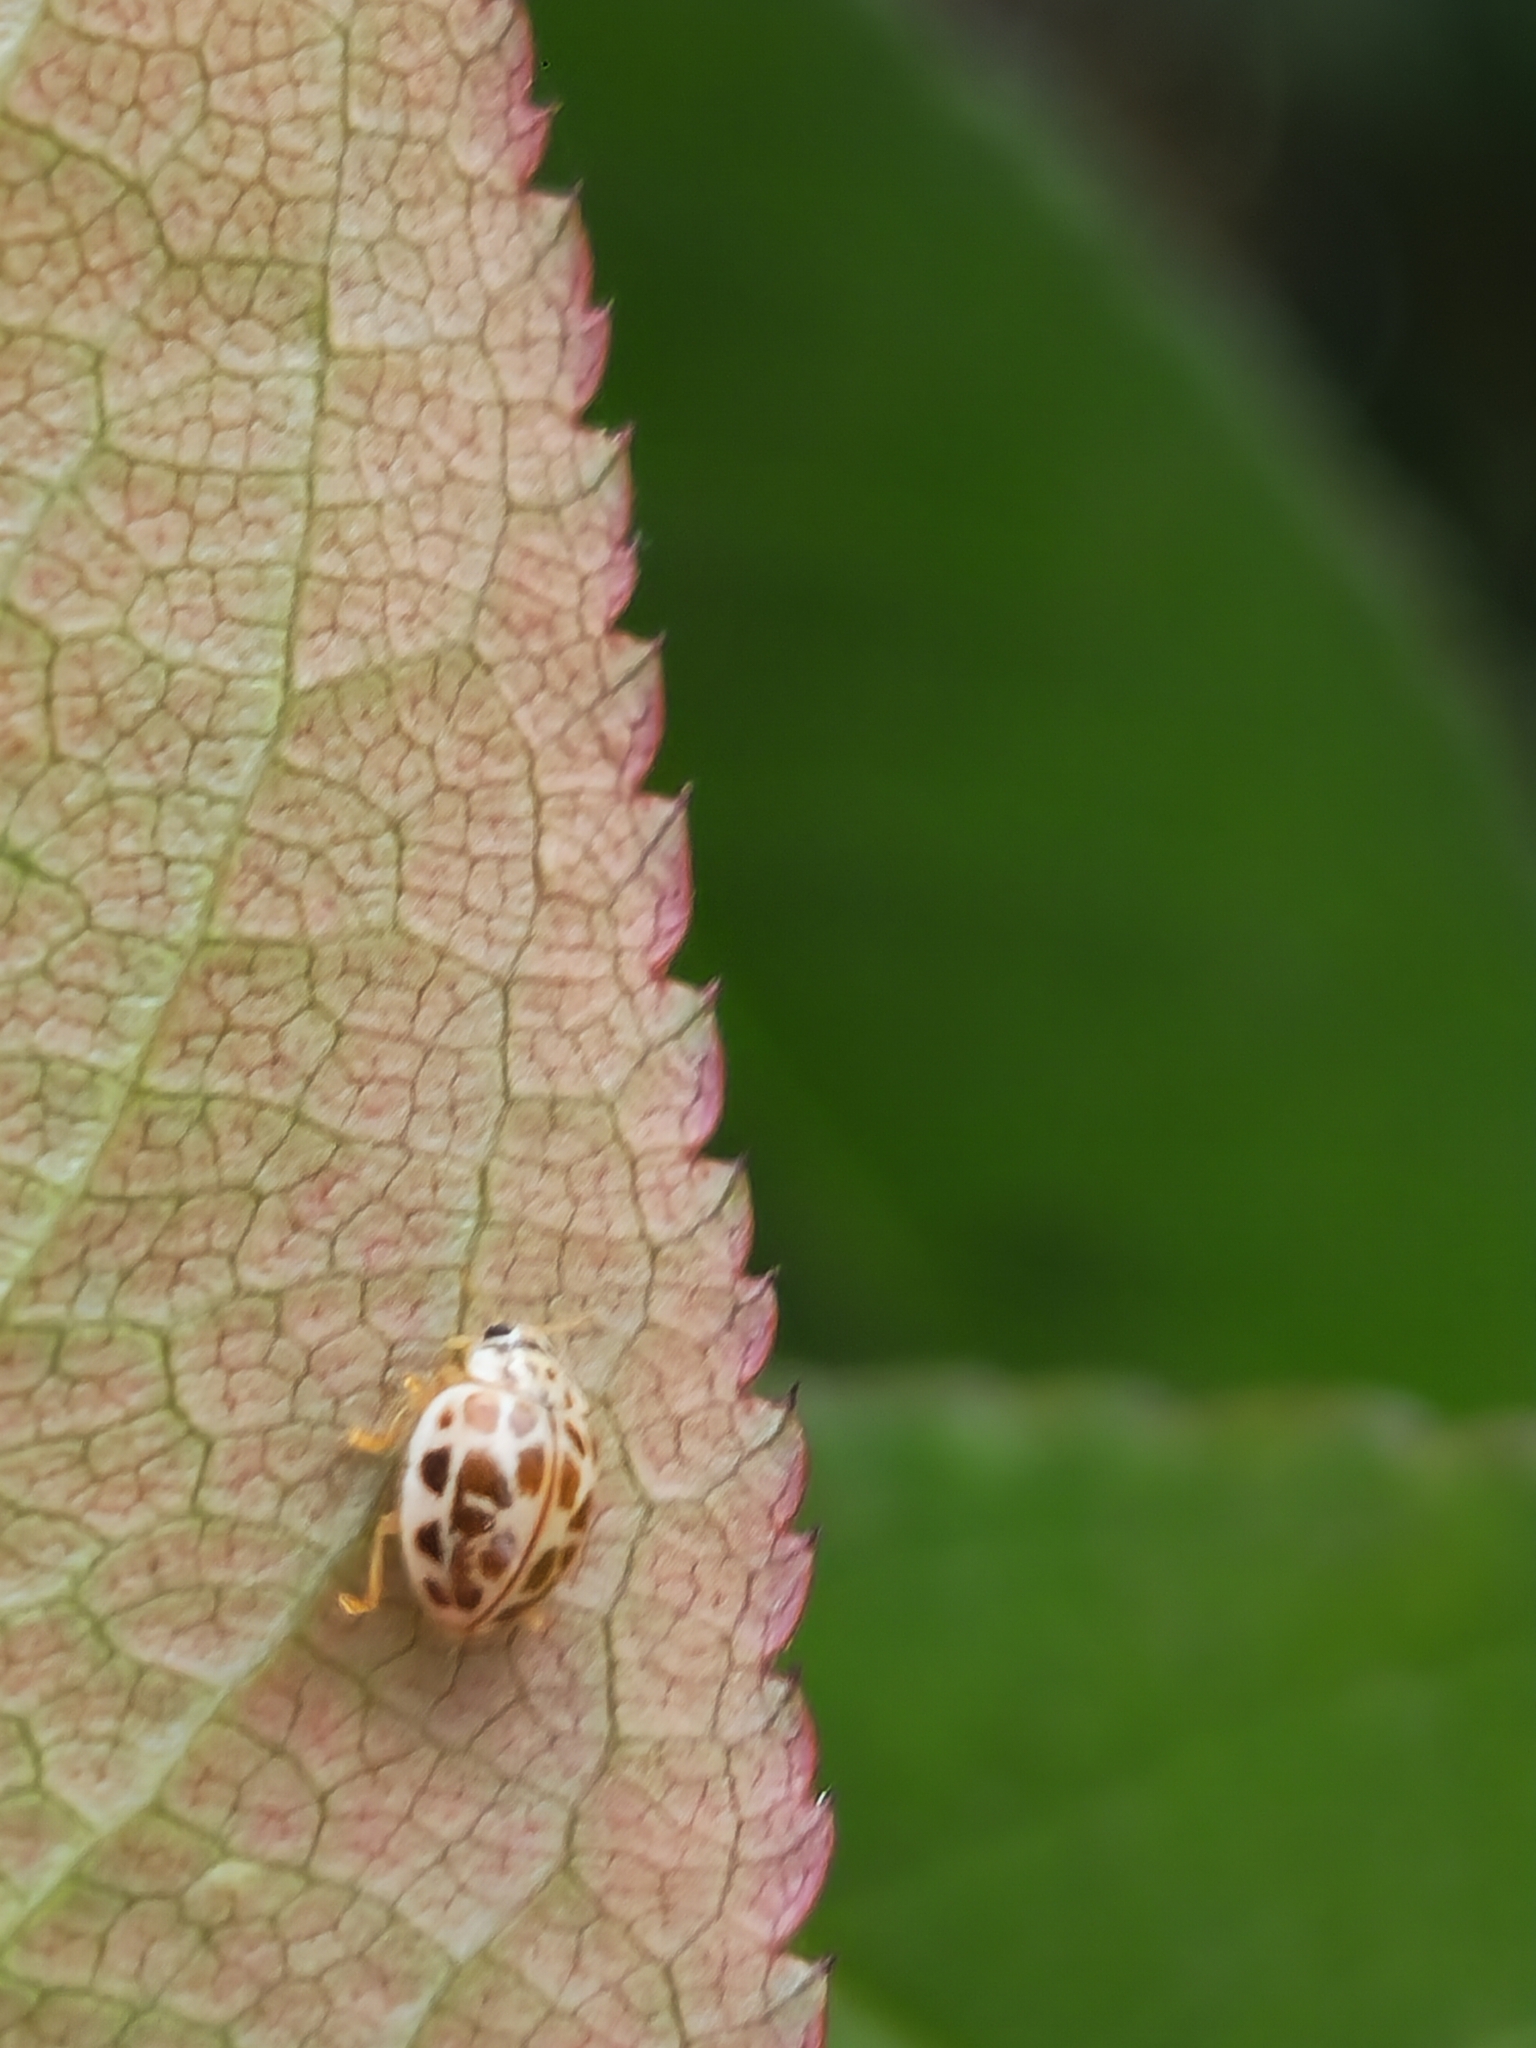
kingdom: Animalia
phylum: Arthropoda
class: Insecta
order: Coleoptera
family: Coccinellidae
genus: Psyllobora
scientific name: Psyllobora confluens
